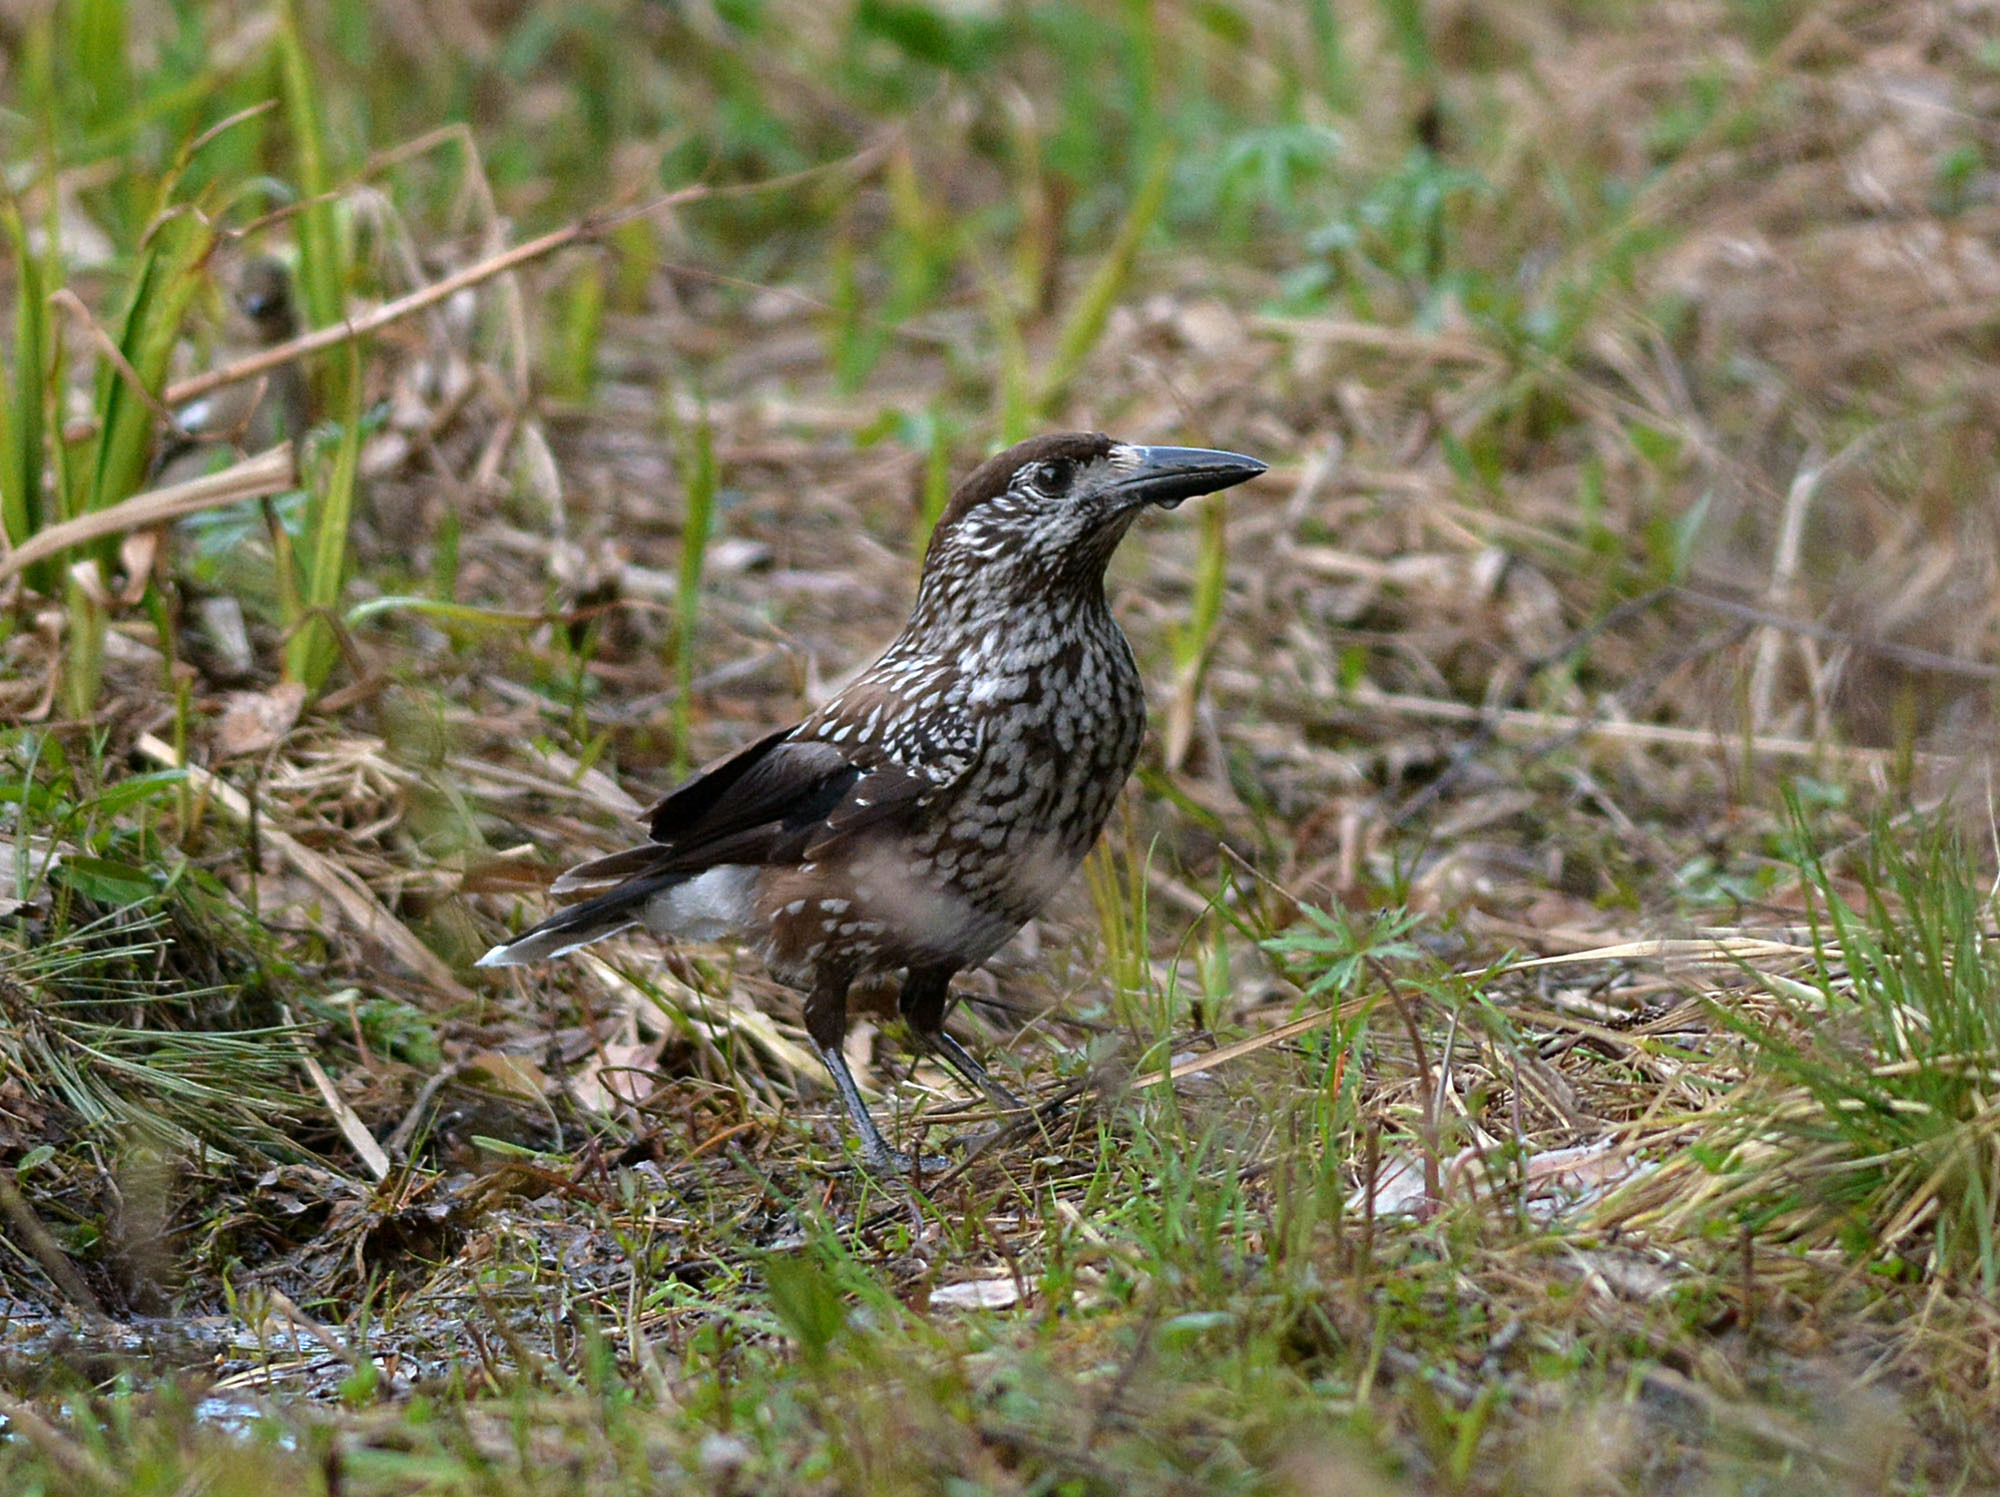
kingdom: Animalia
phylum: Chordata
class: Aves
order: Passeriformes
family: Corvidae
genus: Nucifraga
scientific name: Nucifraga caryocatactes
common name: Spotted nutcracker
